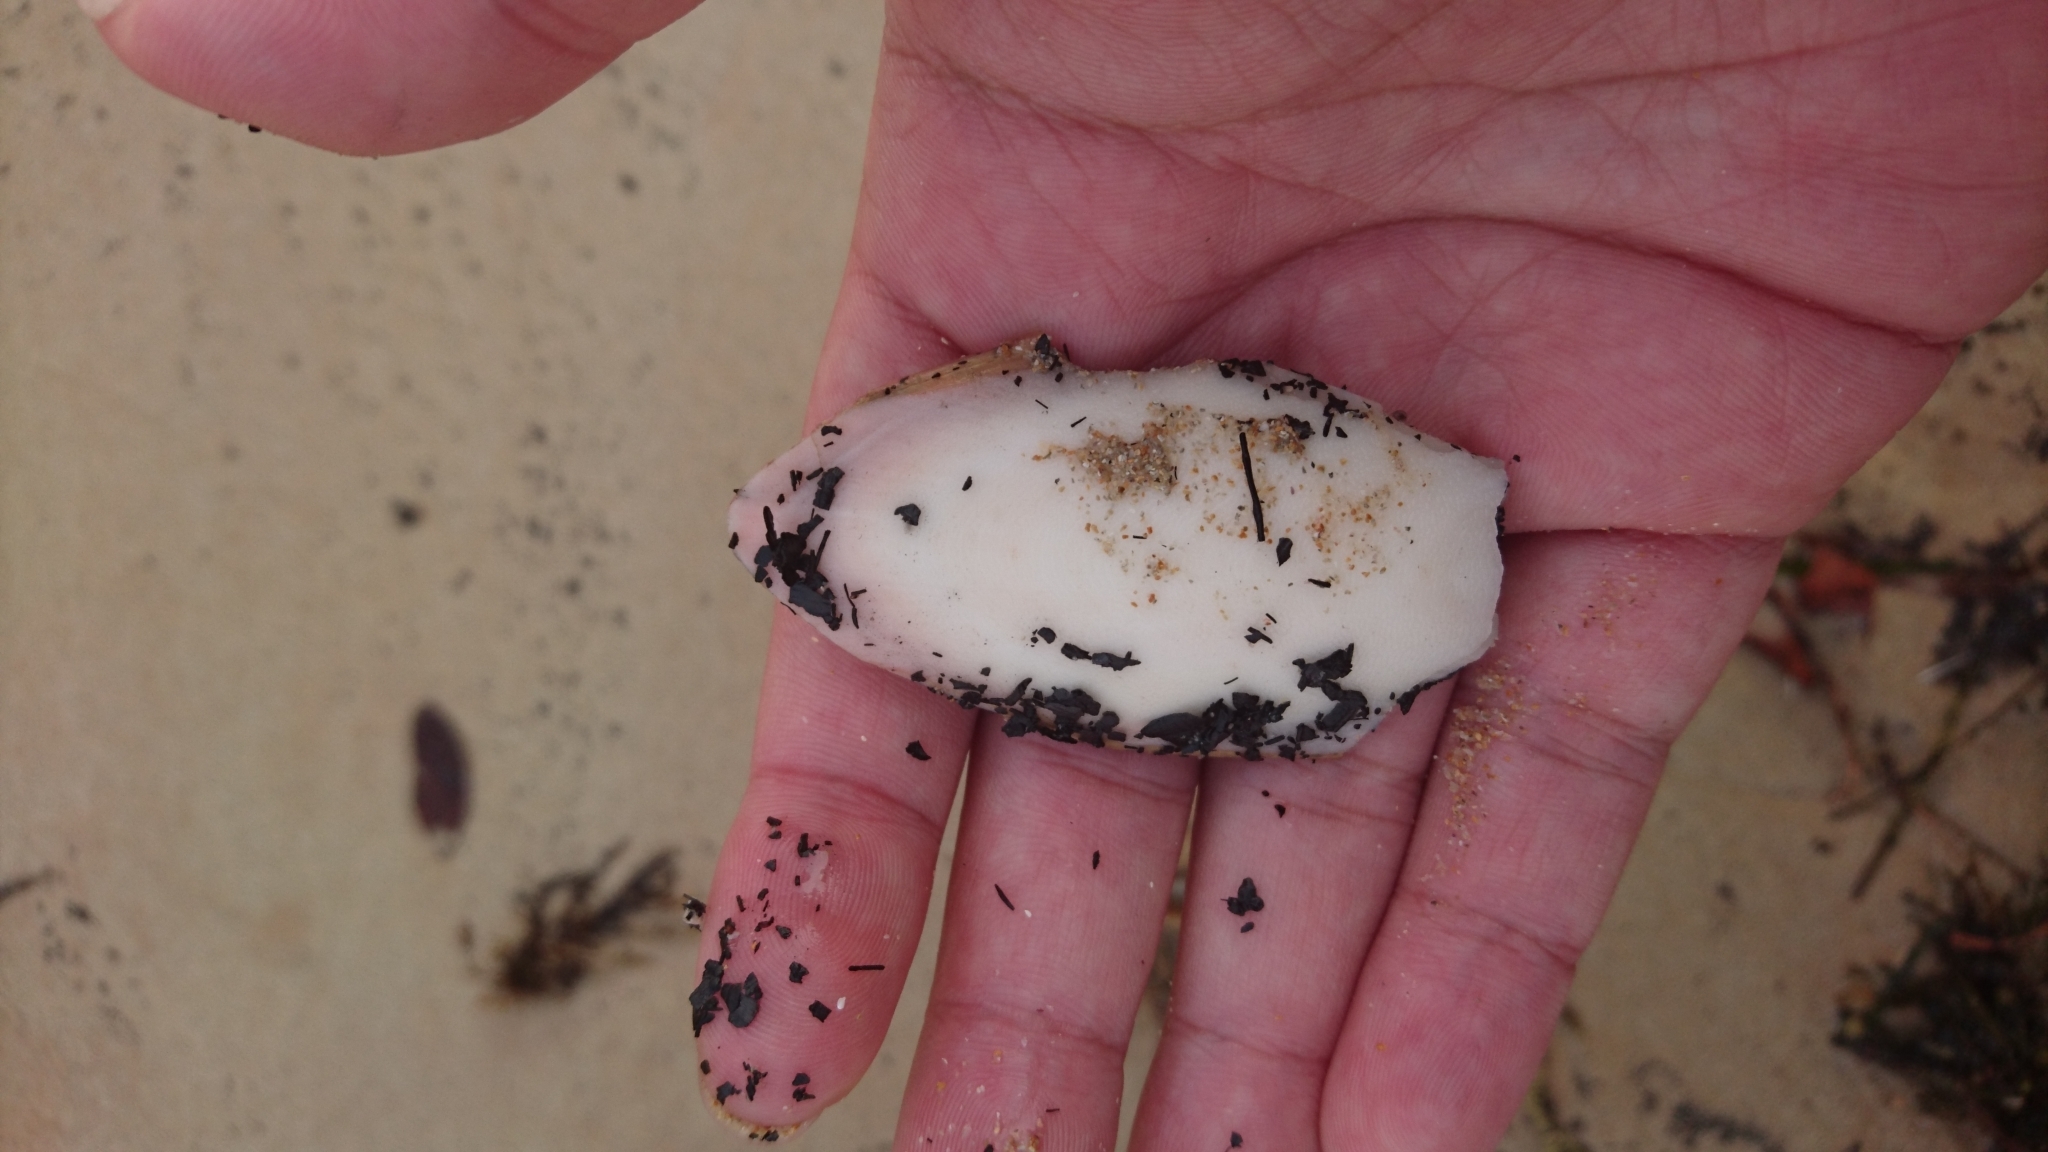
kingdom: Animalia
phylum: Mollusca
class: Cephalopoda
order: Sepiida
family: Sepiidae
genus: Sepia
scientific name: Sepia grahami
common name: Ken's cuttlefish
